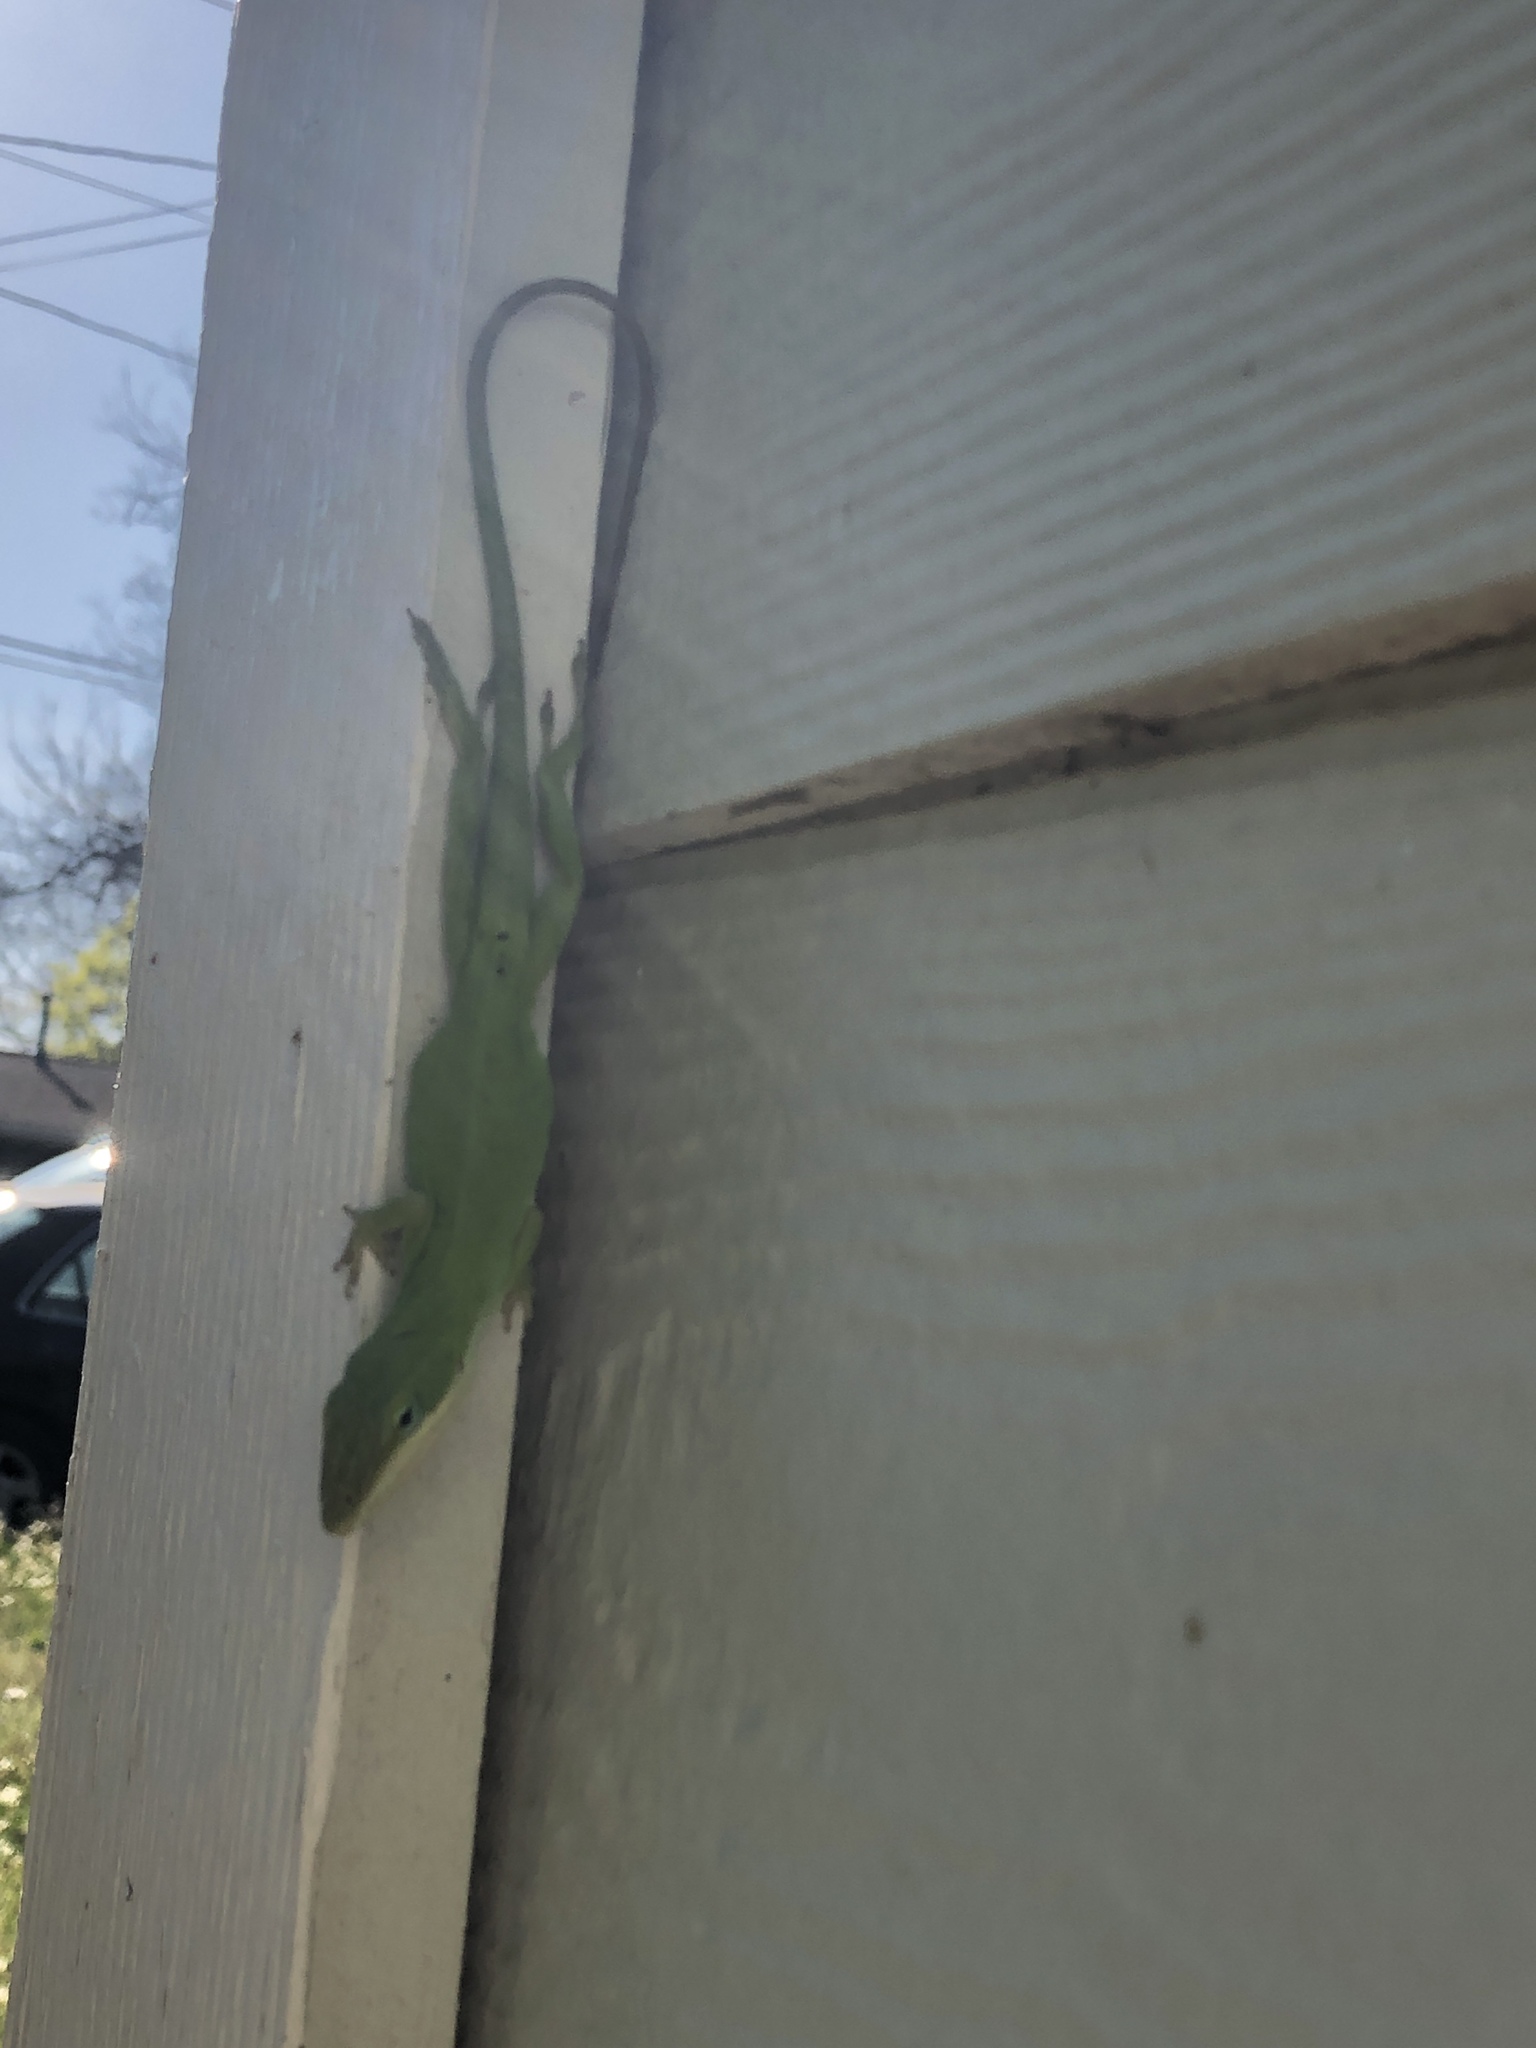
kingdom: Animalia
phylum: Chordata
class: Squamata
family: Dactyloidae
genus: Anolis
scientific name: Anolis carolinensis
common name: Green anole
